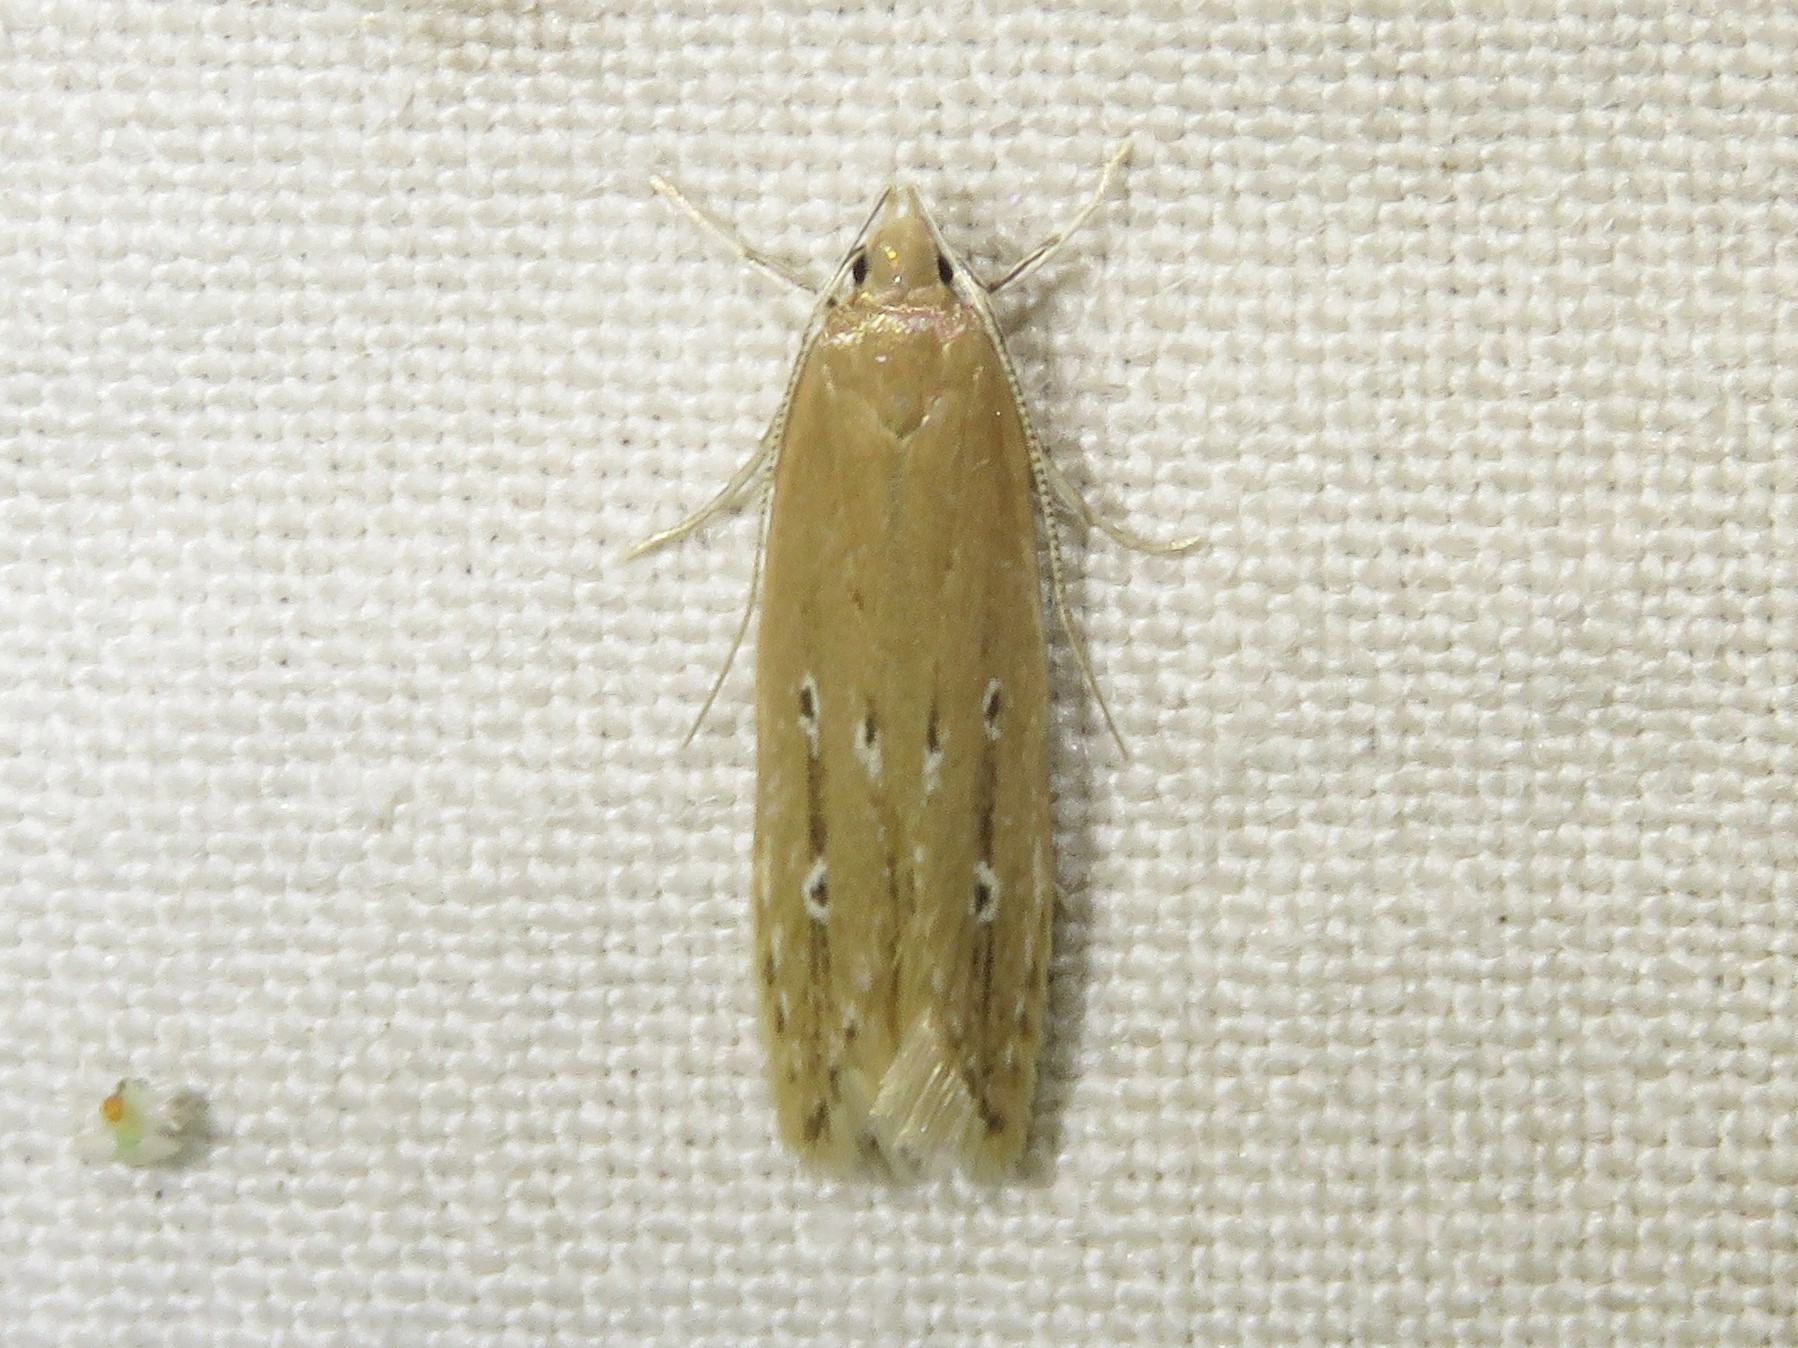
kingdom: Animalia
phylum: Arthropoda
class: Insecta
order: Lepidoptera
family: Cosmopterigidae
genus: Limnaecia
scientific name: Limnaecia phragmitella
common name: Bulrush cosmet
